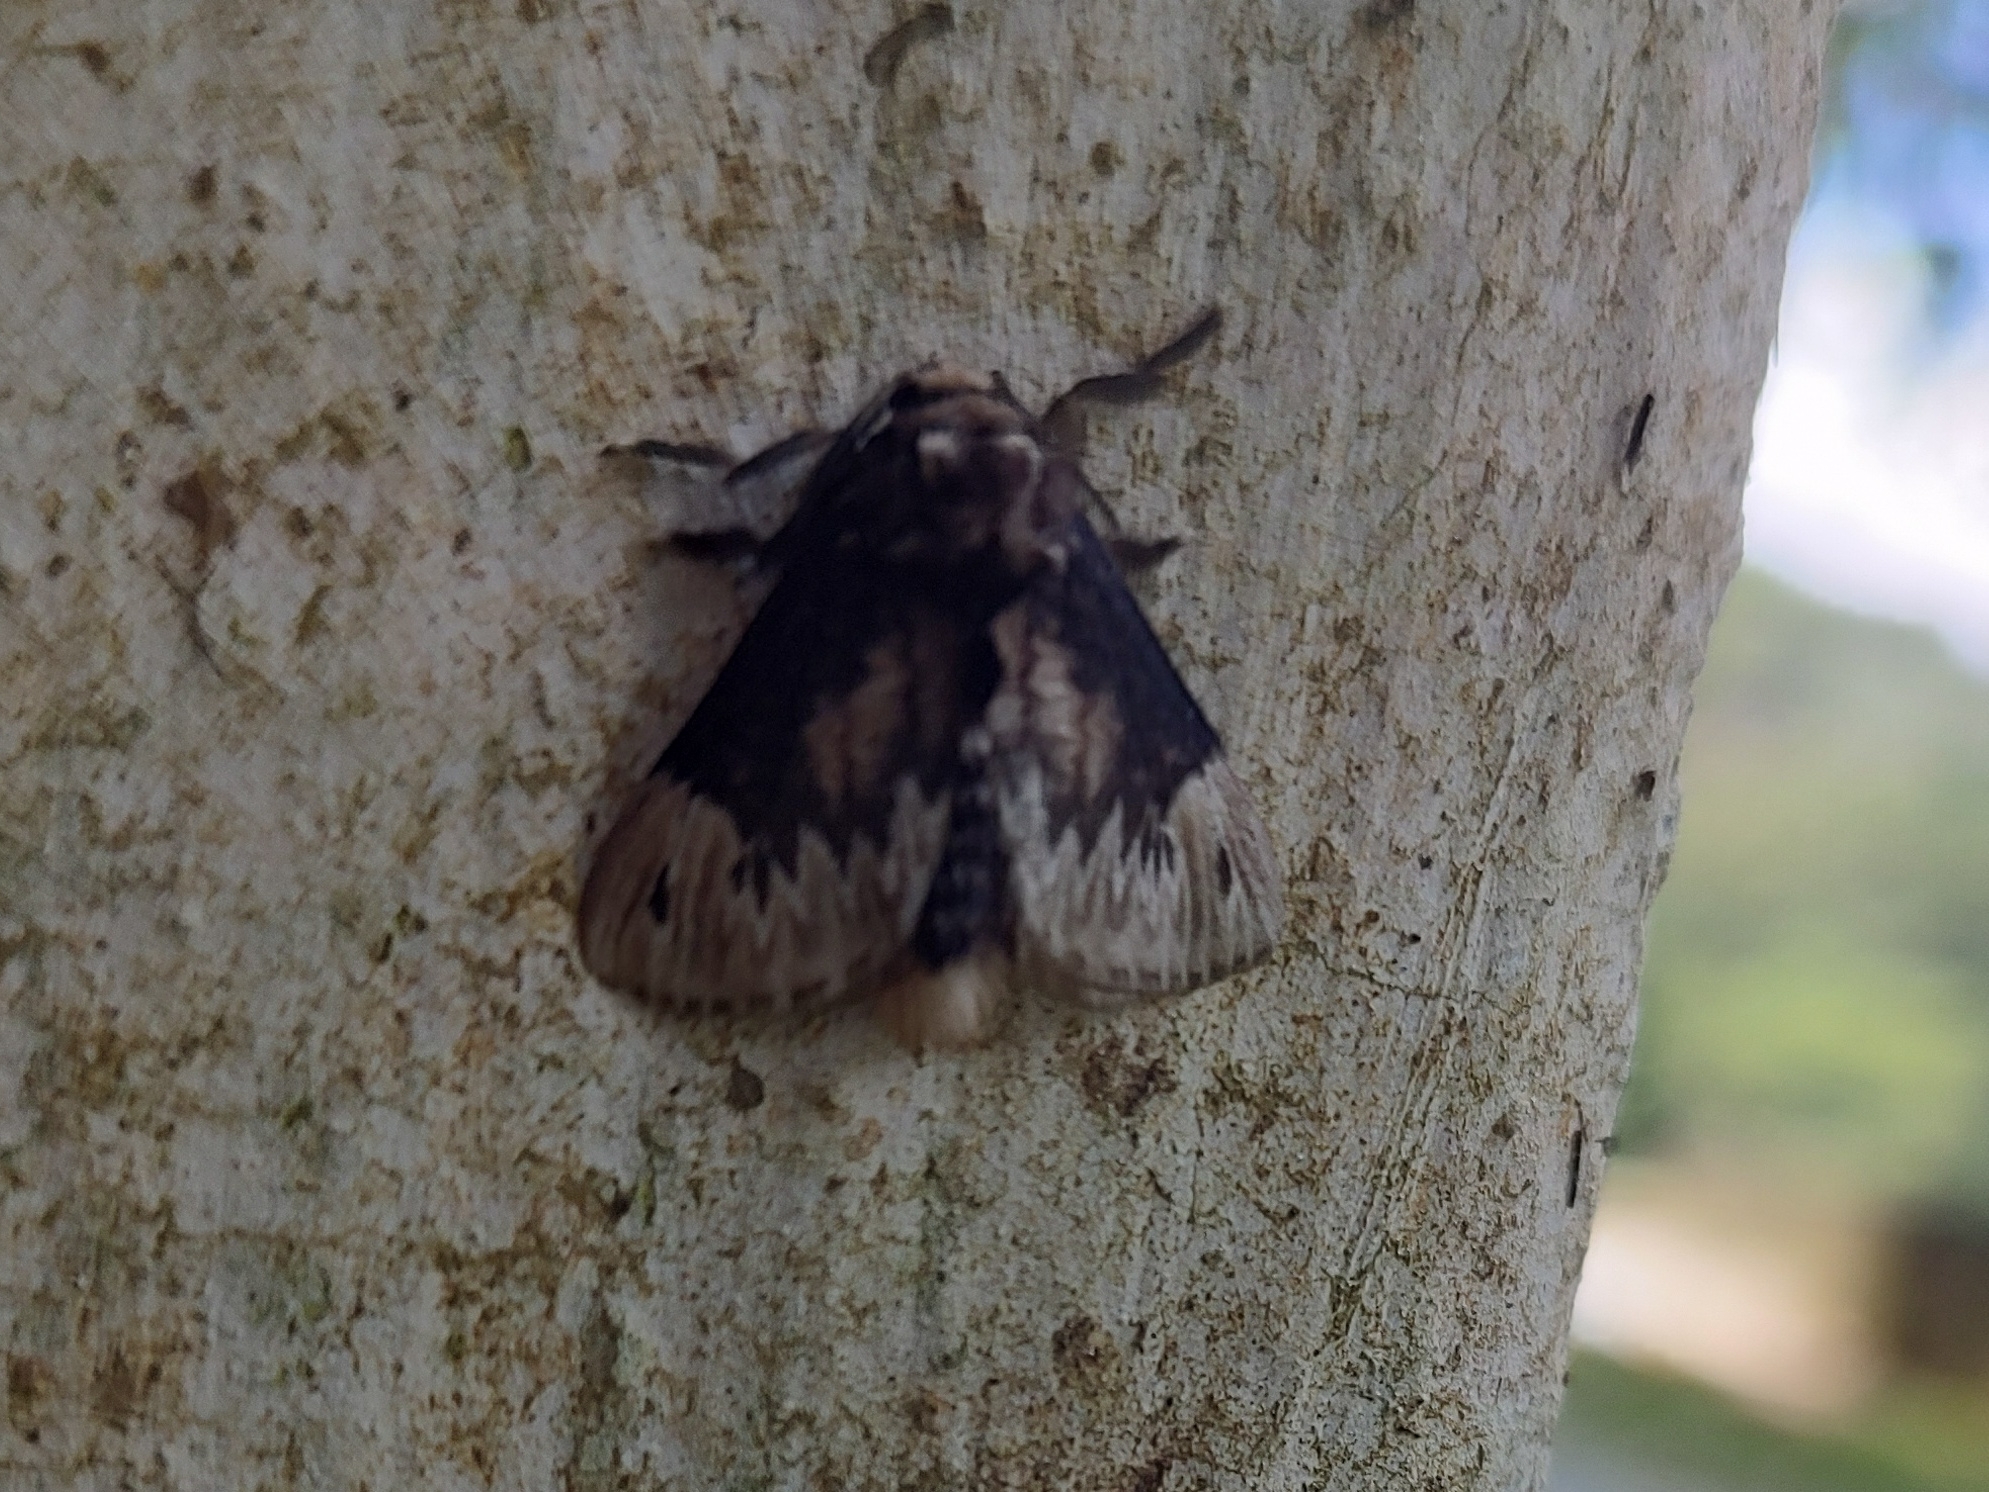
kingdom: Animalia
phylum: Arthropoda
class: Insecta
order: Lepidoptera
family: Megalopygidae
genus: Podalia
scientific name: Podalia
